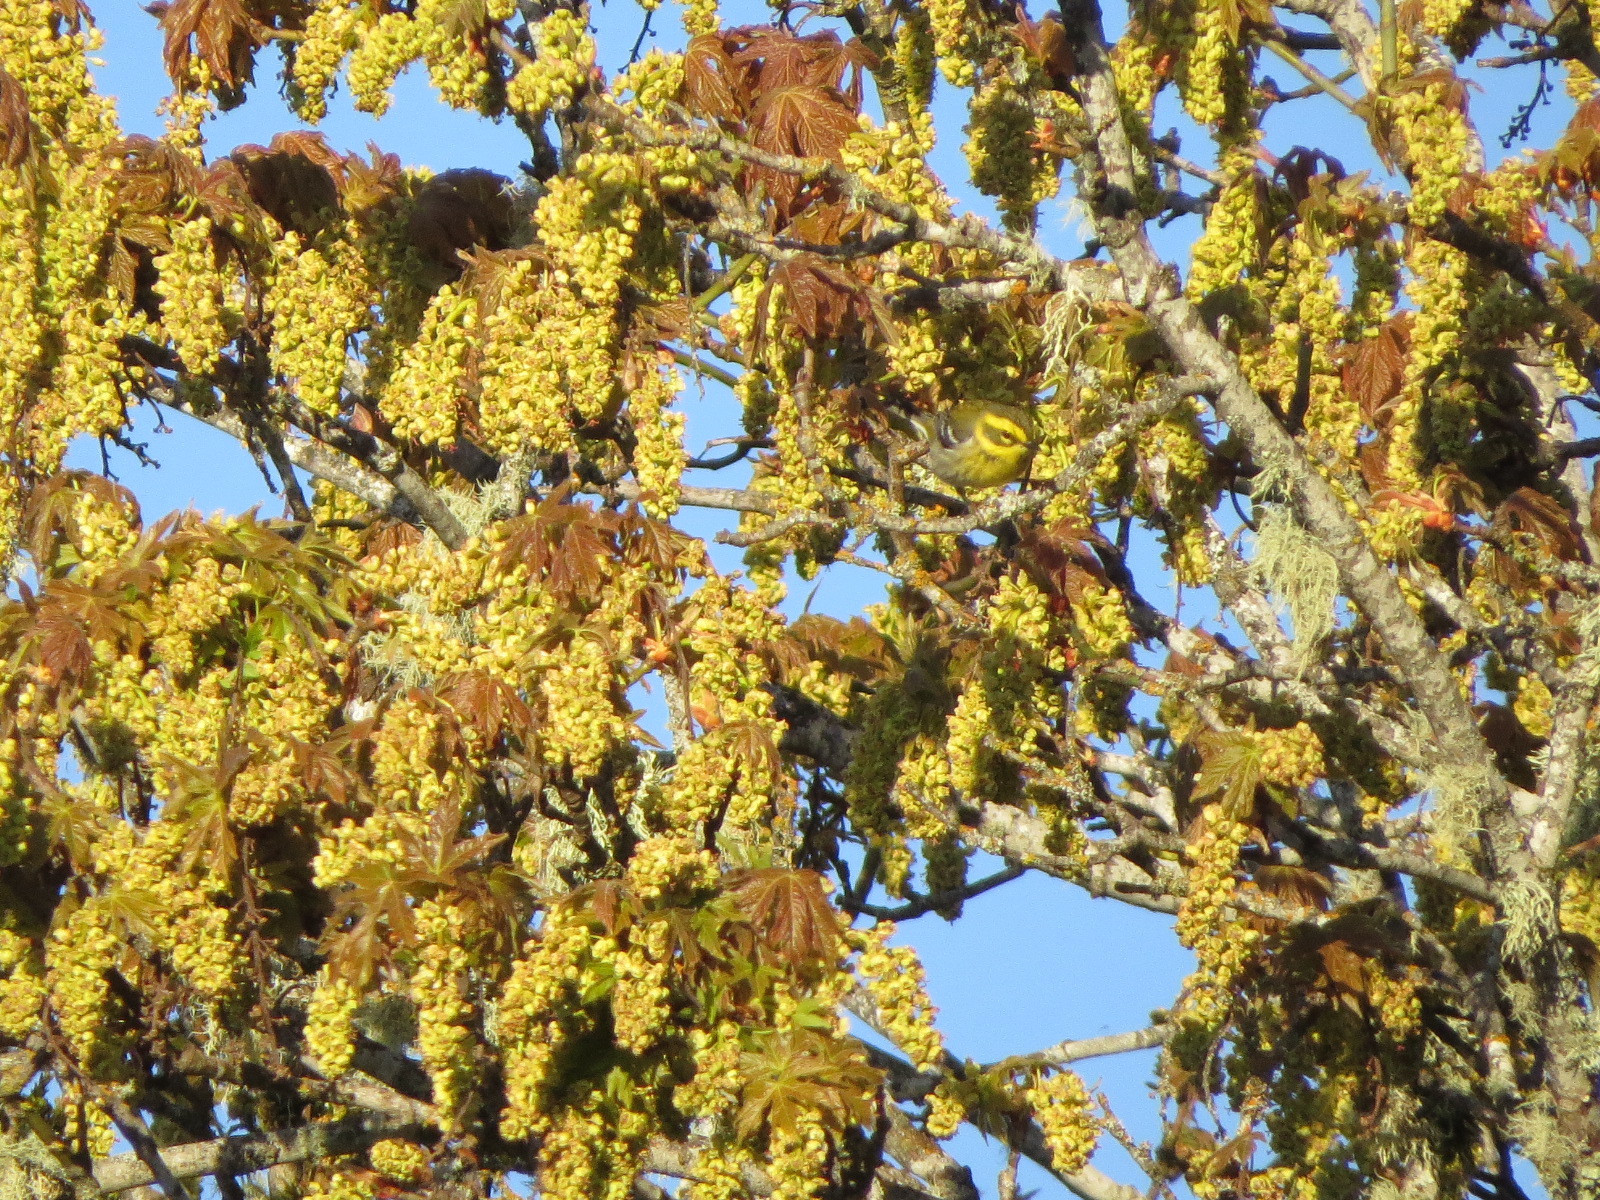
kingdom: Animalia
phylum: Chordata
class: Aves
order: Passeriformes
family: Parulidae
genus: Setophaga
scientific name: Setophaga townsendi
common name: Townsend's warbler
